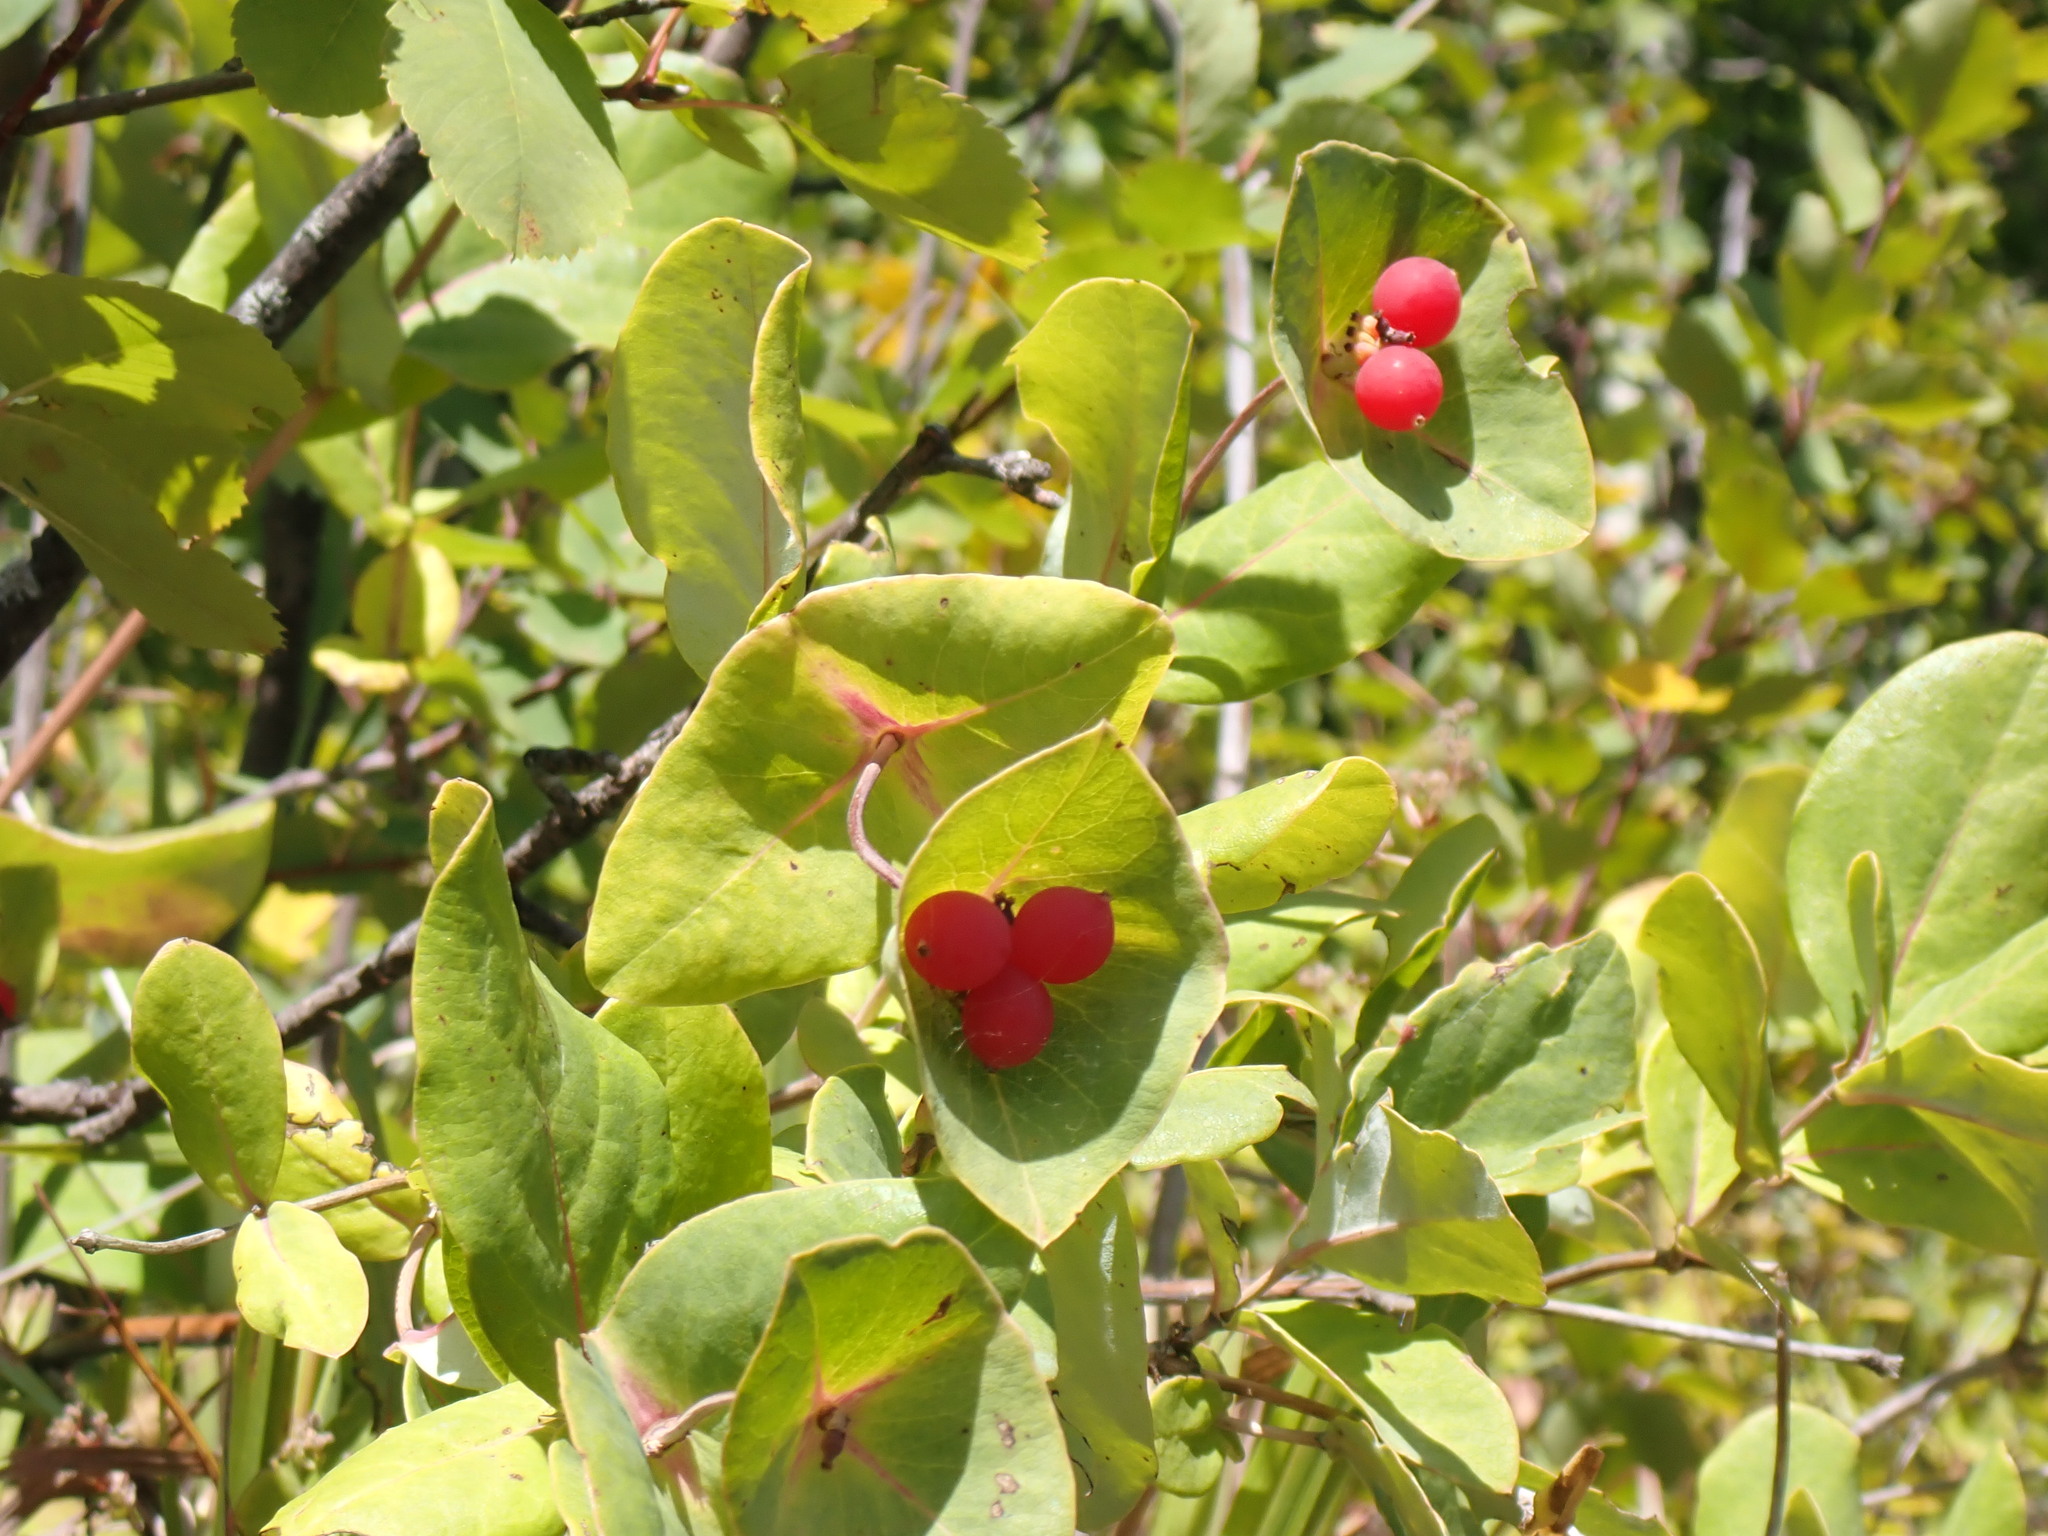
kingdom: Plantae
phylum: Tracheophyta
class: Magnoliopsida
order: Dipsacales
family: Caprifoliaceae
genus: Lonicera
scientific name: Lonicera dioica
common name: Limber honeysuckle
